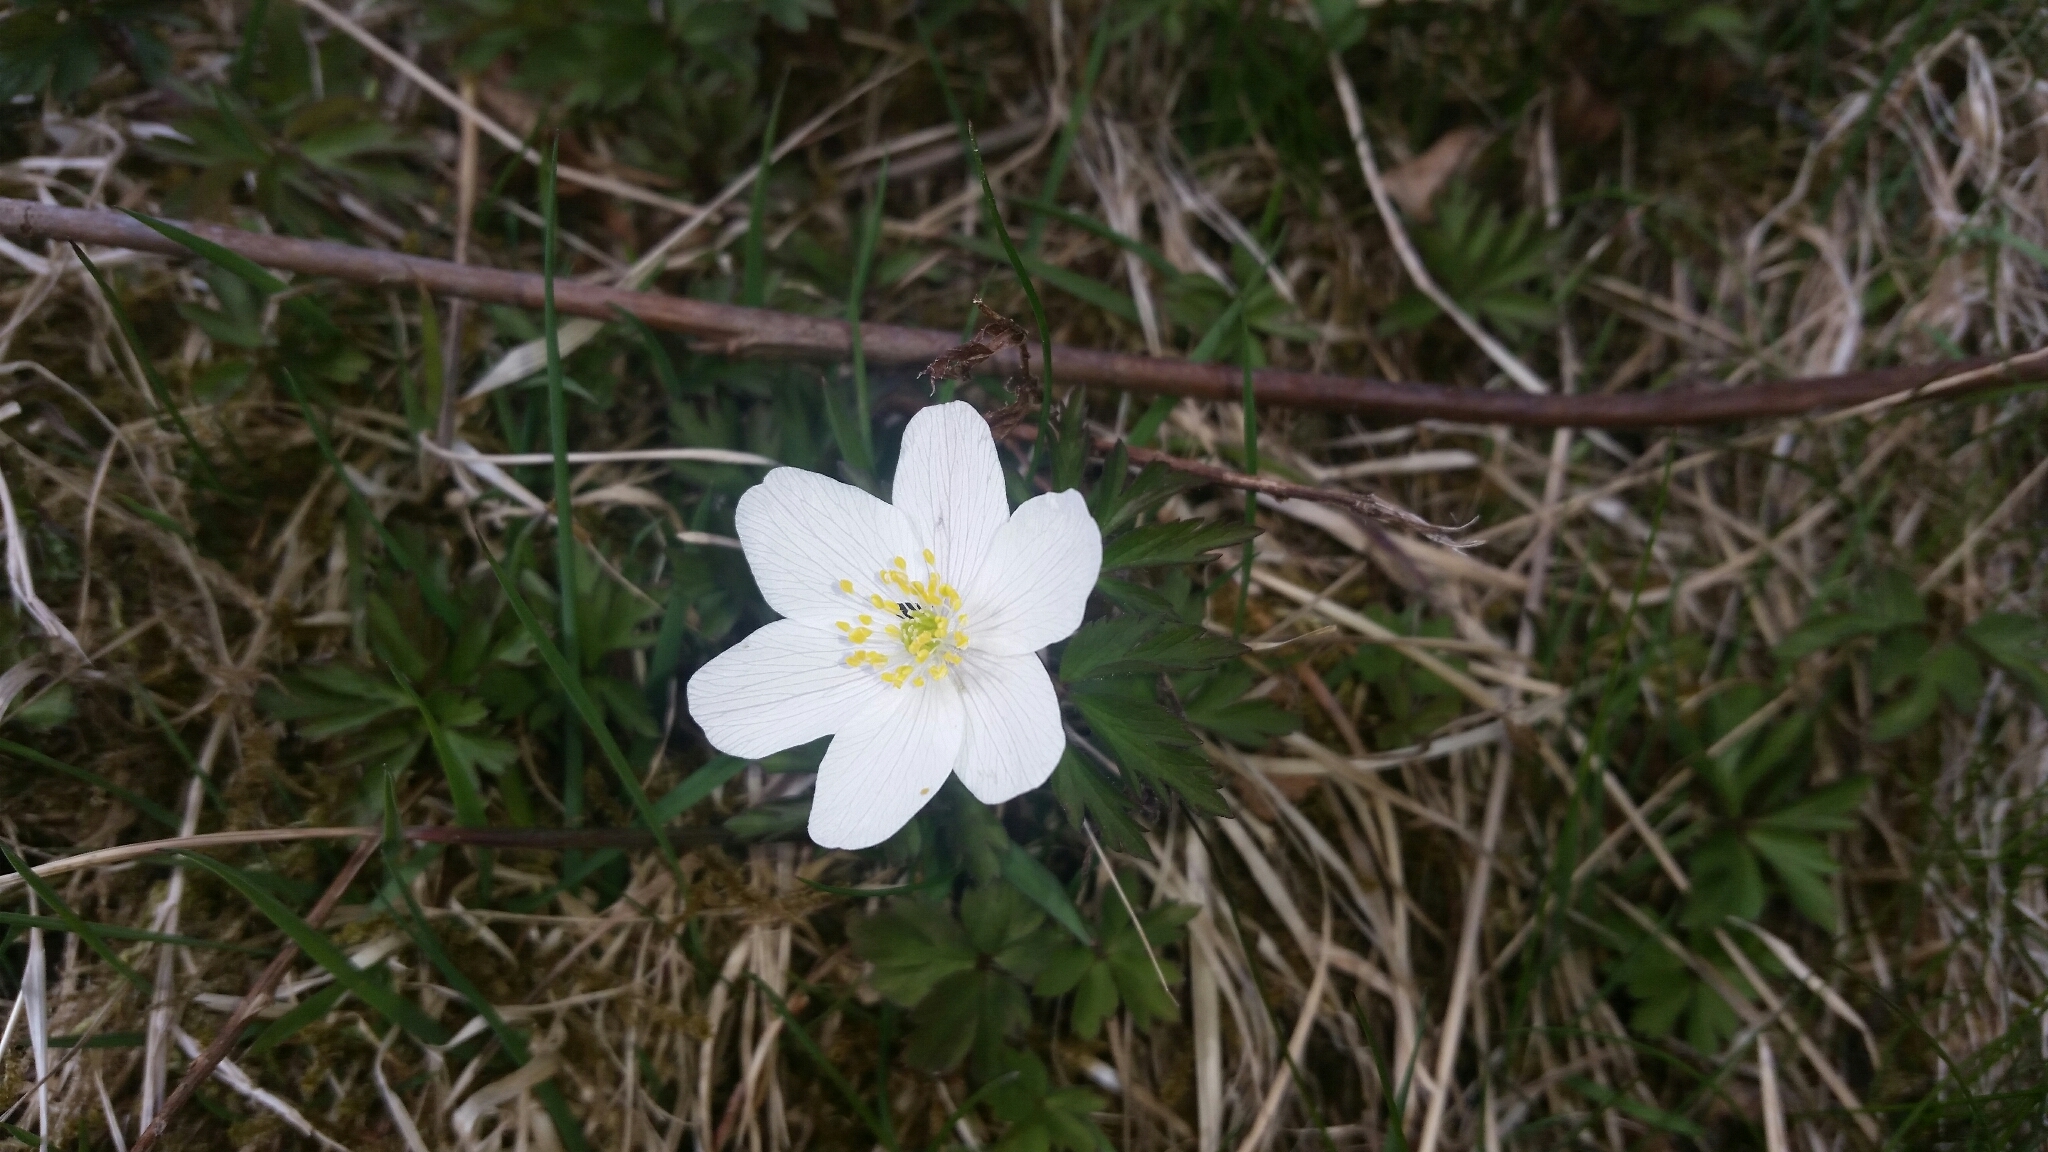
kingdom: Plantae
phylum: Tracheophyta
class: Magnoliopsida
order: Ranunculales
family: Ranunculaceae
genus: Anemone
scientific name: Anemone nemorosa
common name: Wood anemone
